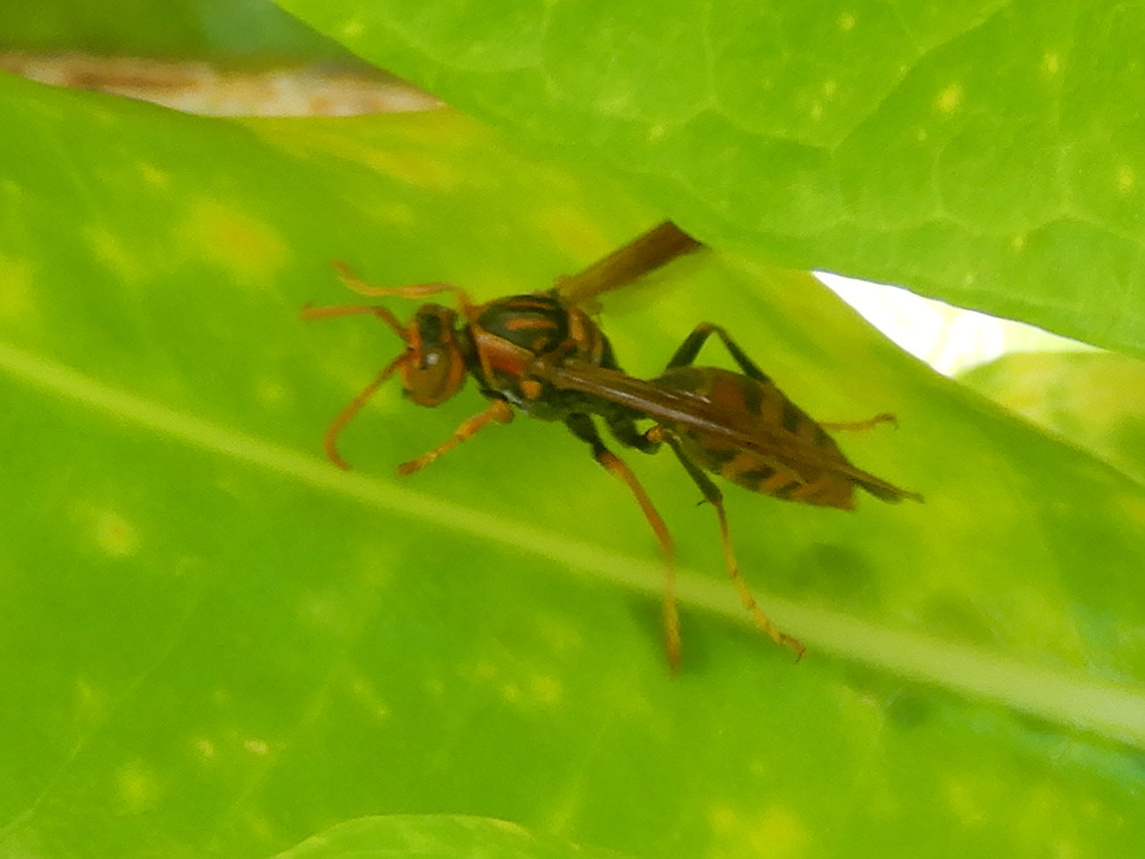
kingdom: Animalia
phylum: Arthropoda
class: Insecta
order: Hymenoptera
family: Eumenidae
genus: Polistes
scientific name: Polistes olivaceus
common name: Paper wasp
